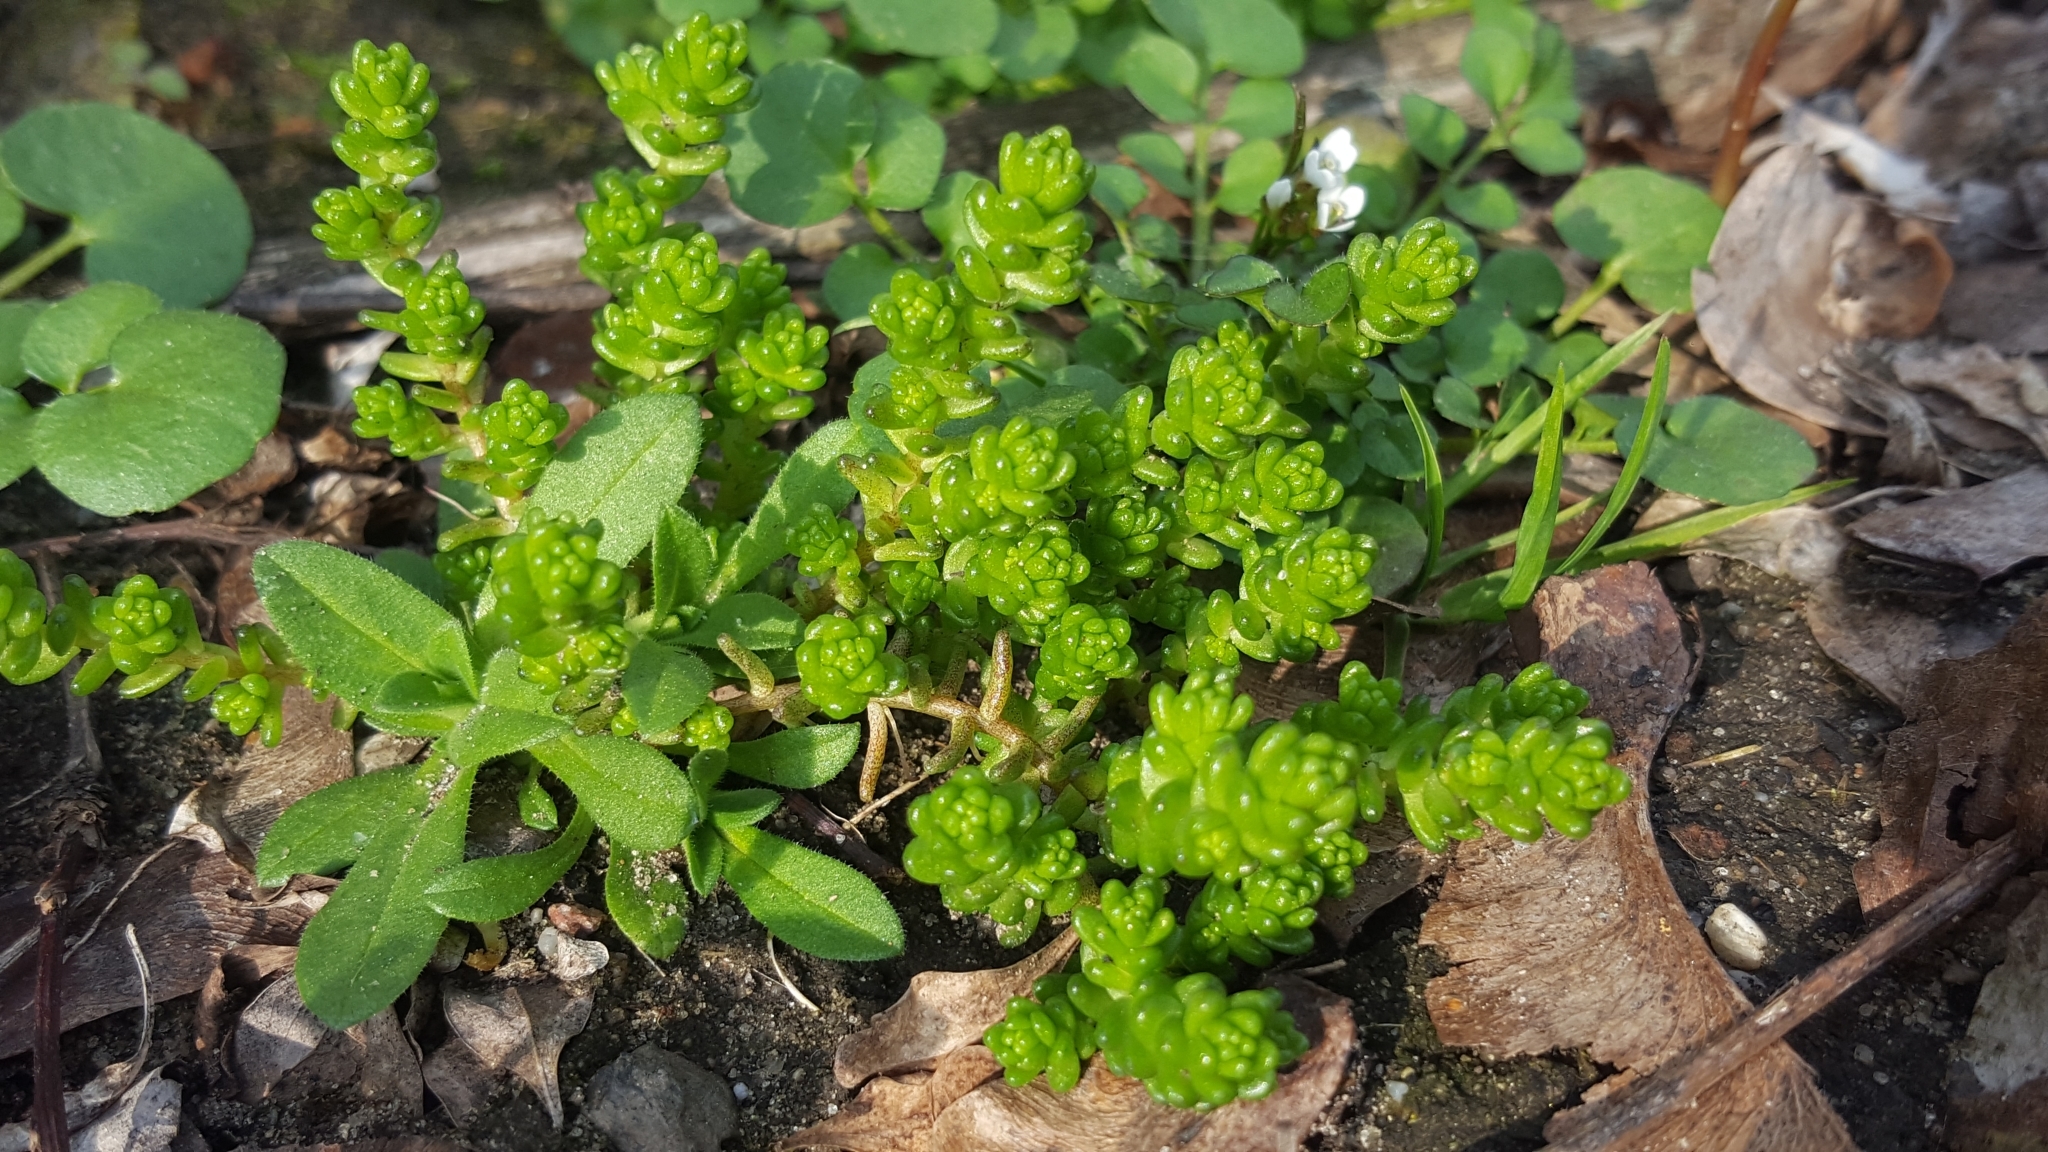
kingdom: Plantae
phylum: Tracheophyta
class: Magnoliopsida
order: Saxifragales
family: Crassulaceae
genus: Sedum
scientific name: Sedum acre
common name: Biting stonecrop
